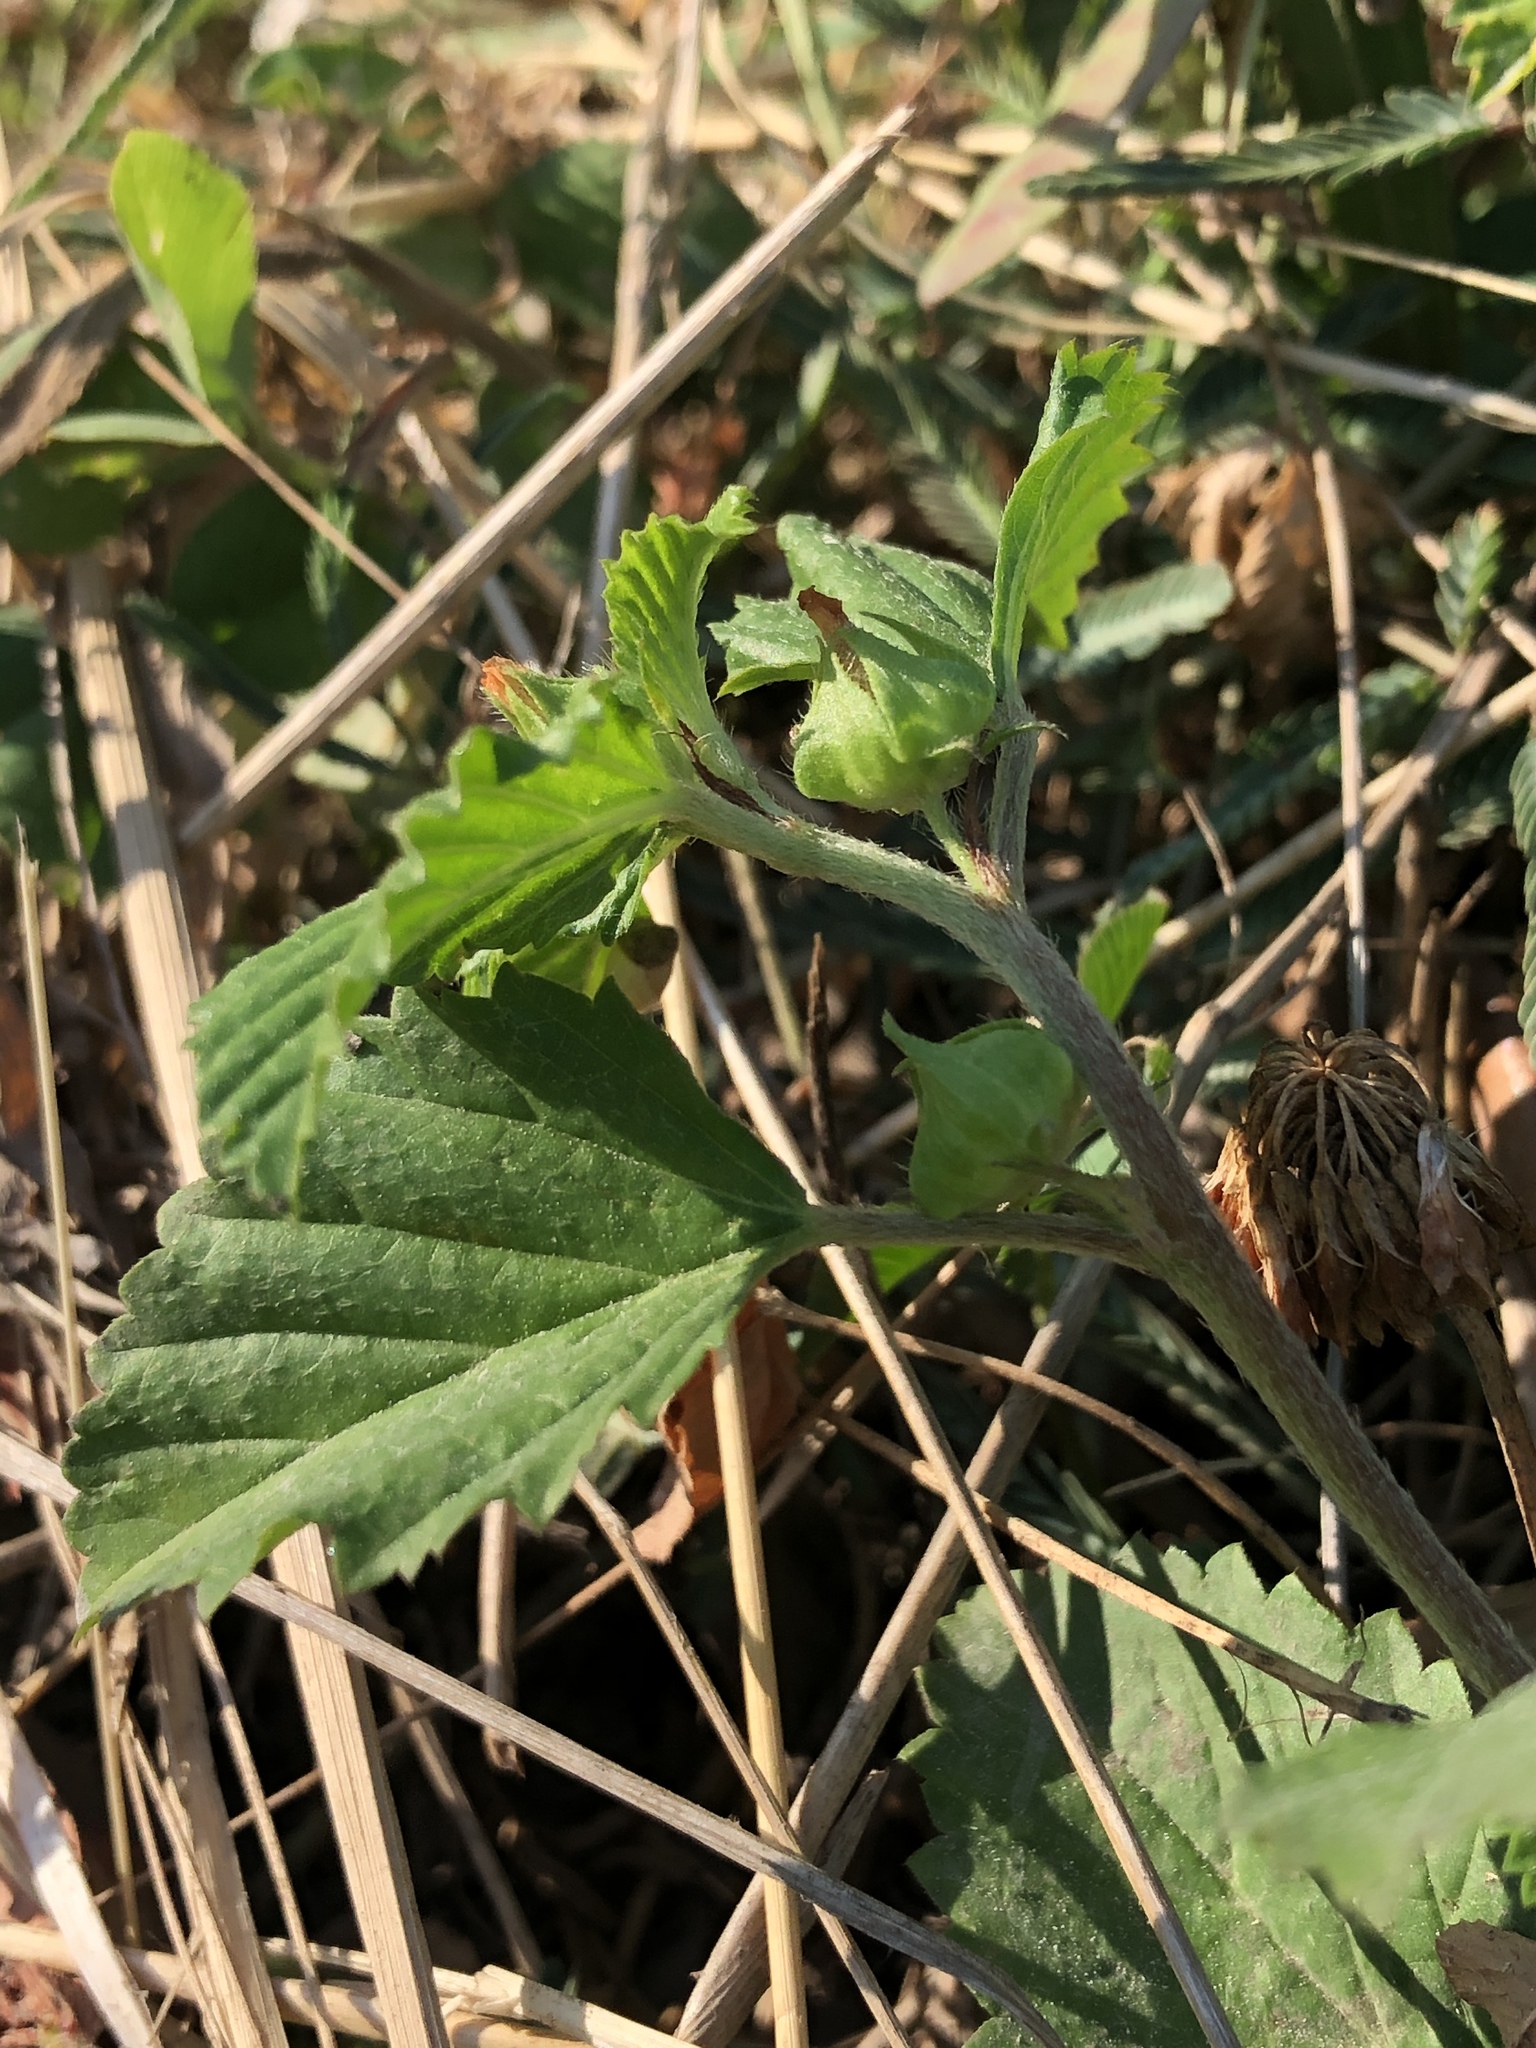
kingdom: Plantae
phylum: Tracheophyta
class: Magnoliopsida
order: Malvales
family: Malvaceae
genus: Malvastrum
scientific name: Malvastrum coromandelianum
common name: Threelobe false mallow
